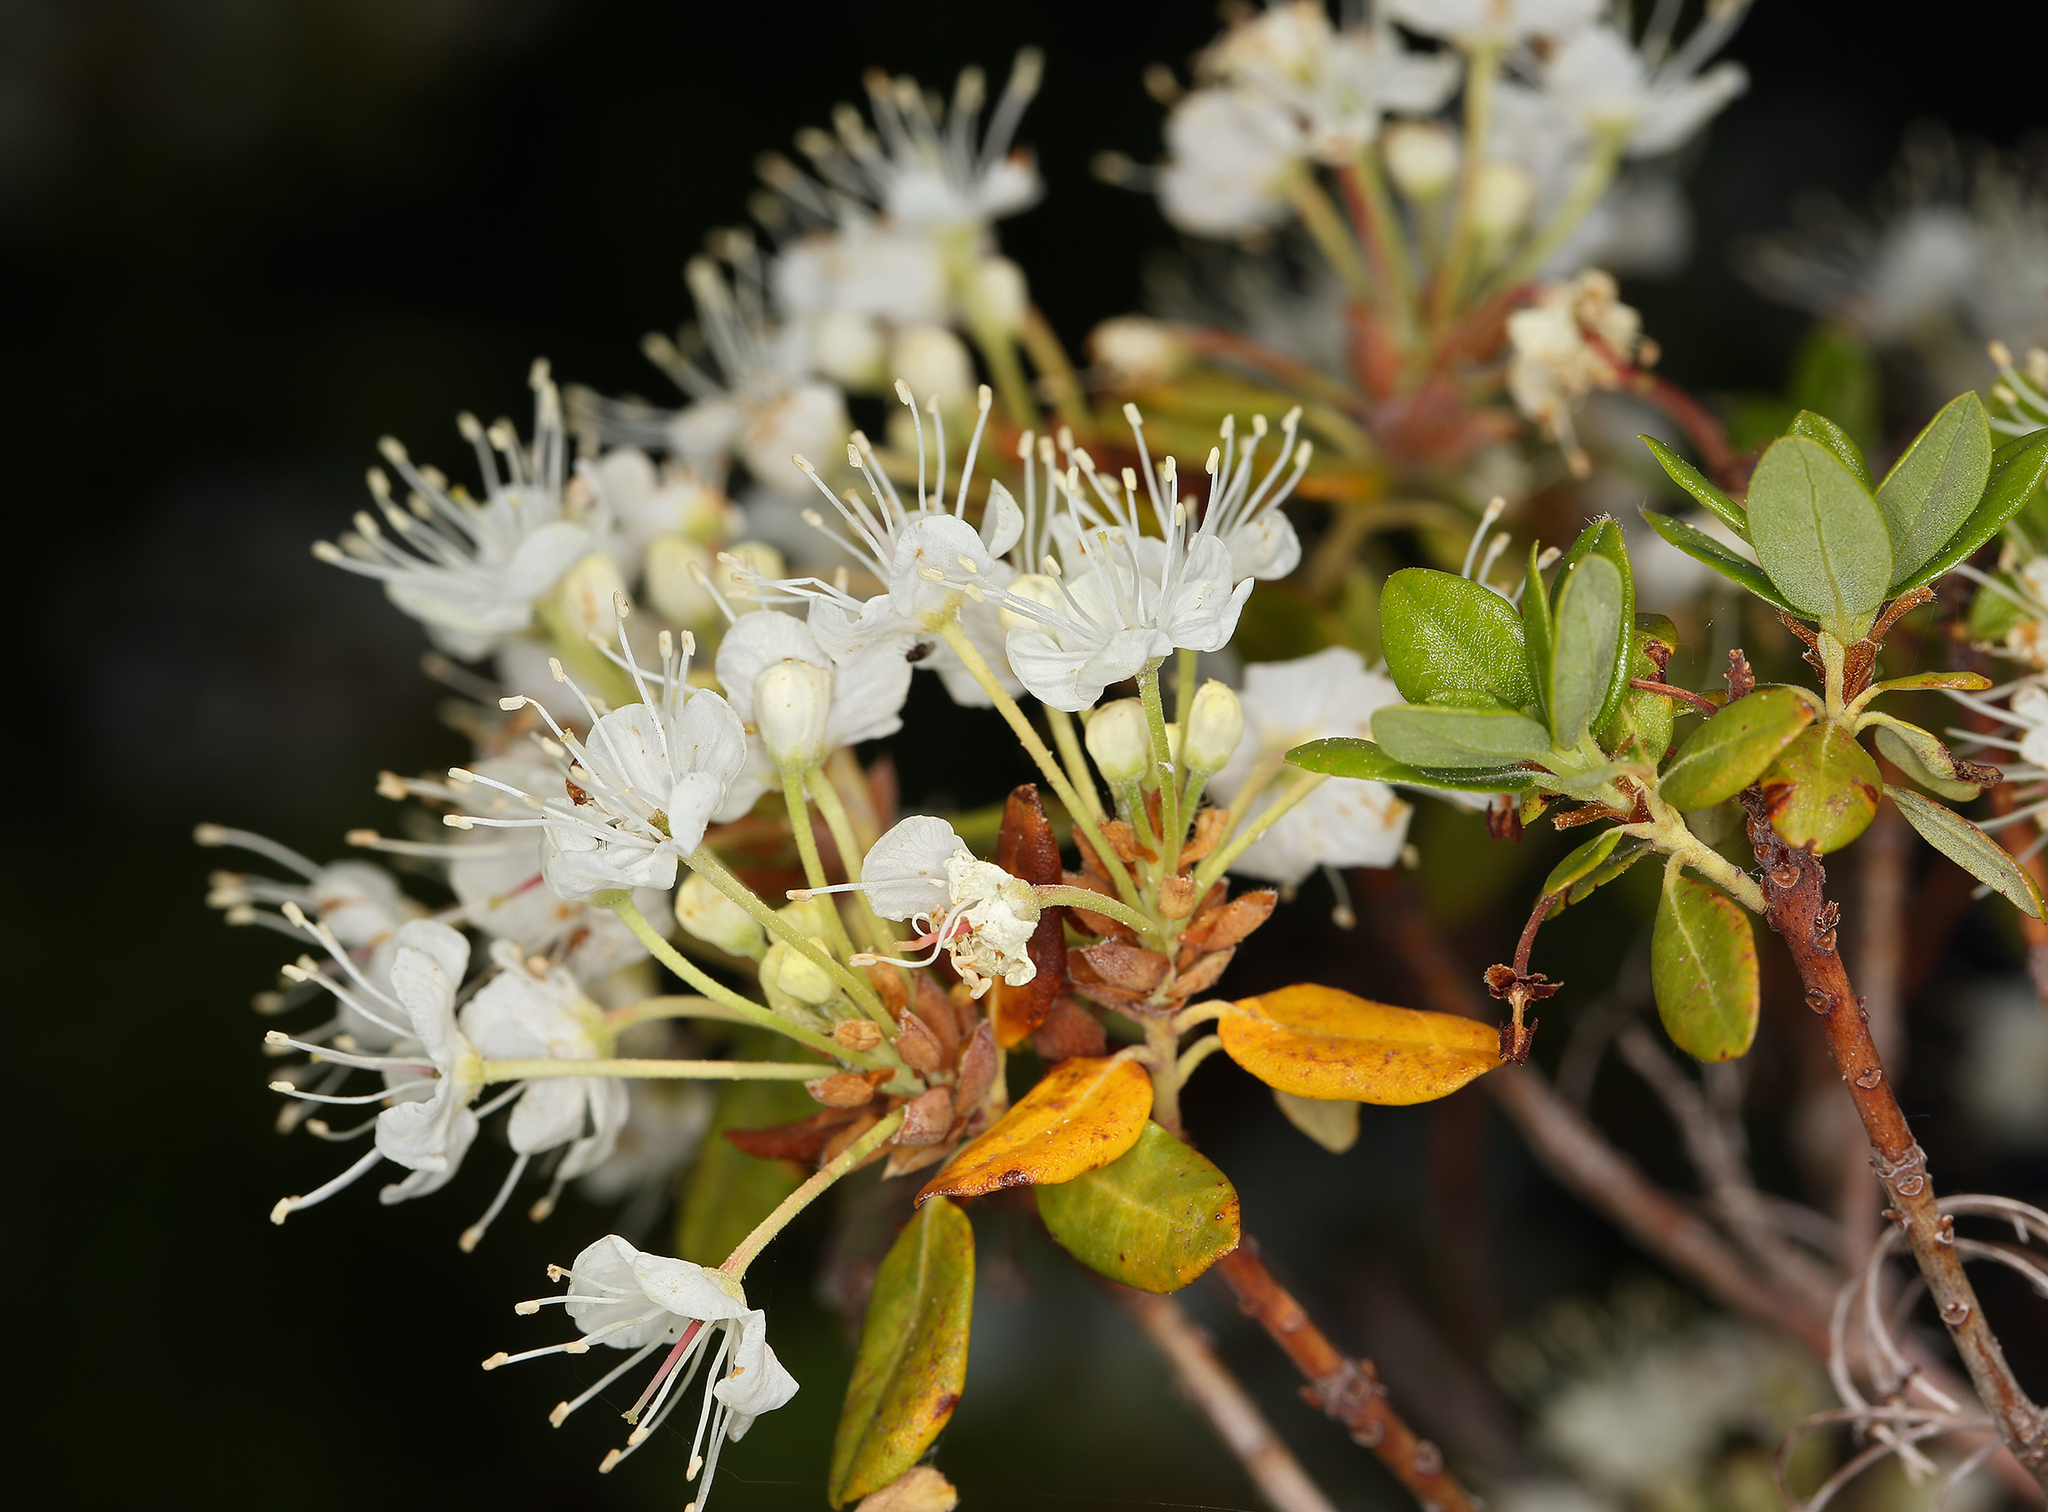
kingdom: Plantae
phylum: Tracheophyta
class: Magnoliopsida
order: Ericales
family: Ericaceae
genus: Rhododendron
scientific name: Rhododendron columbianum
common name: Western labrador tea
